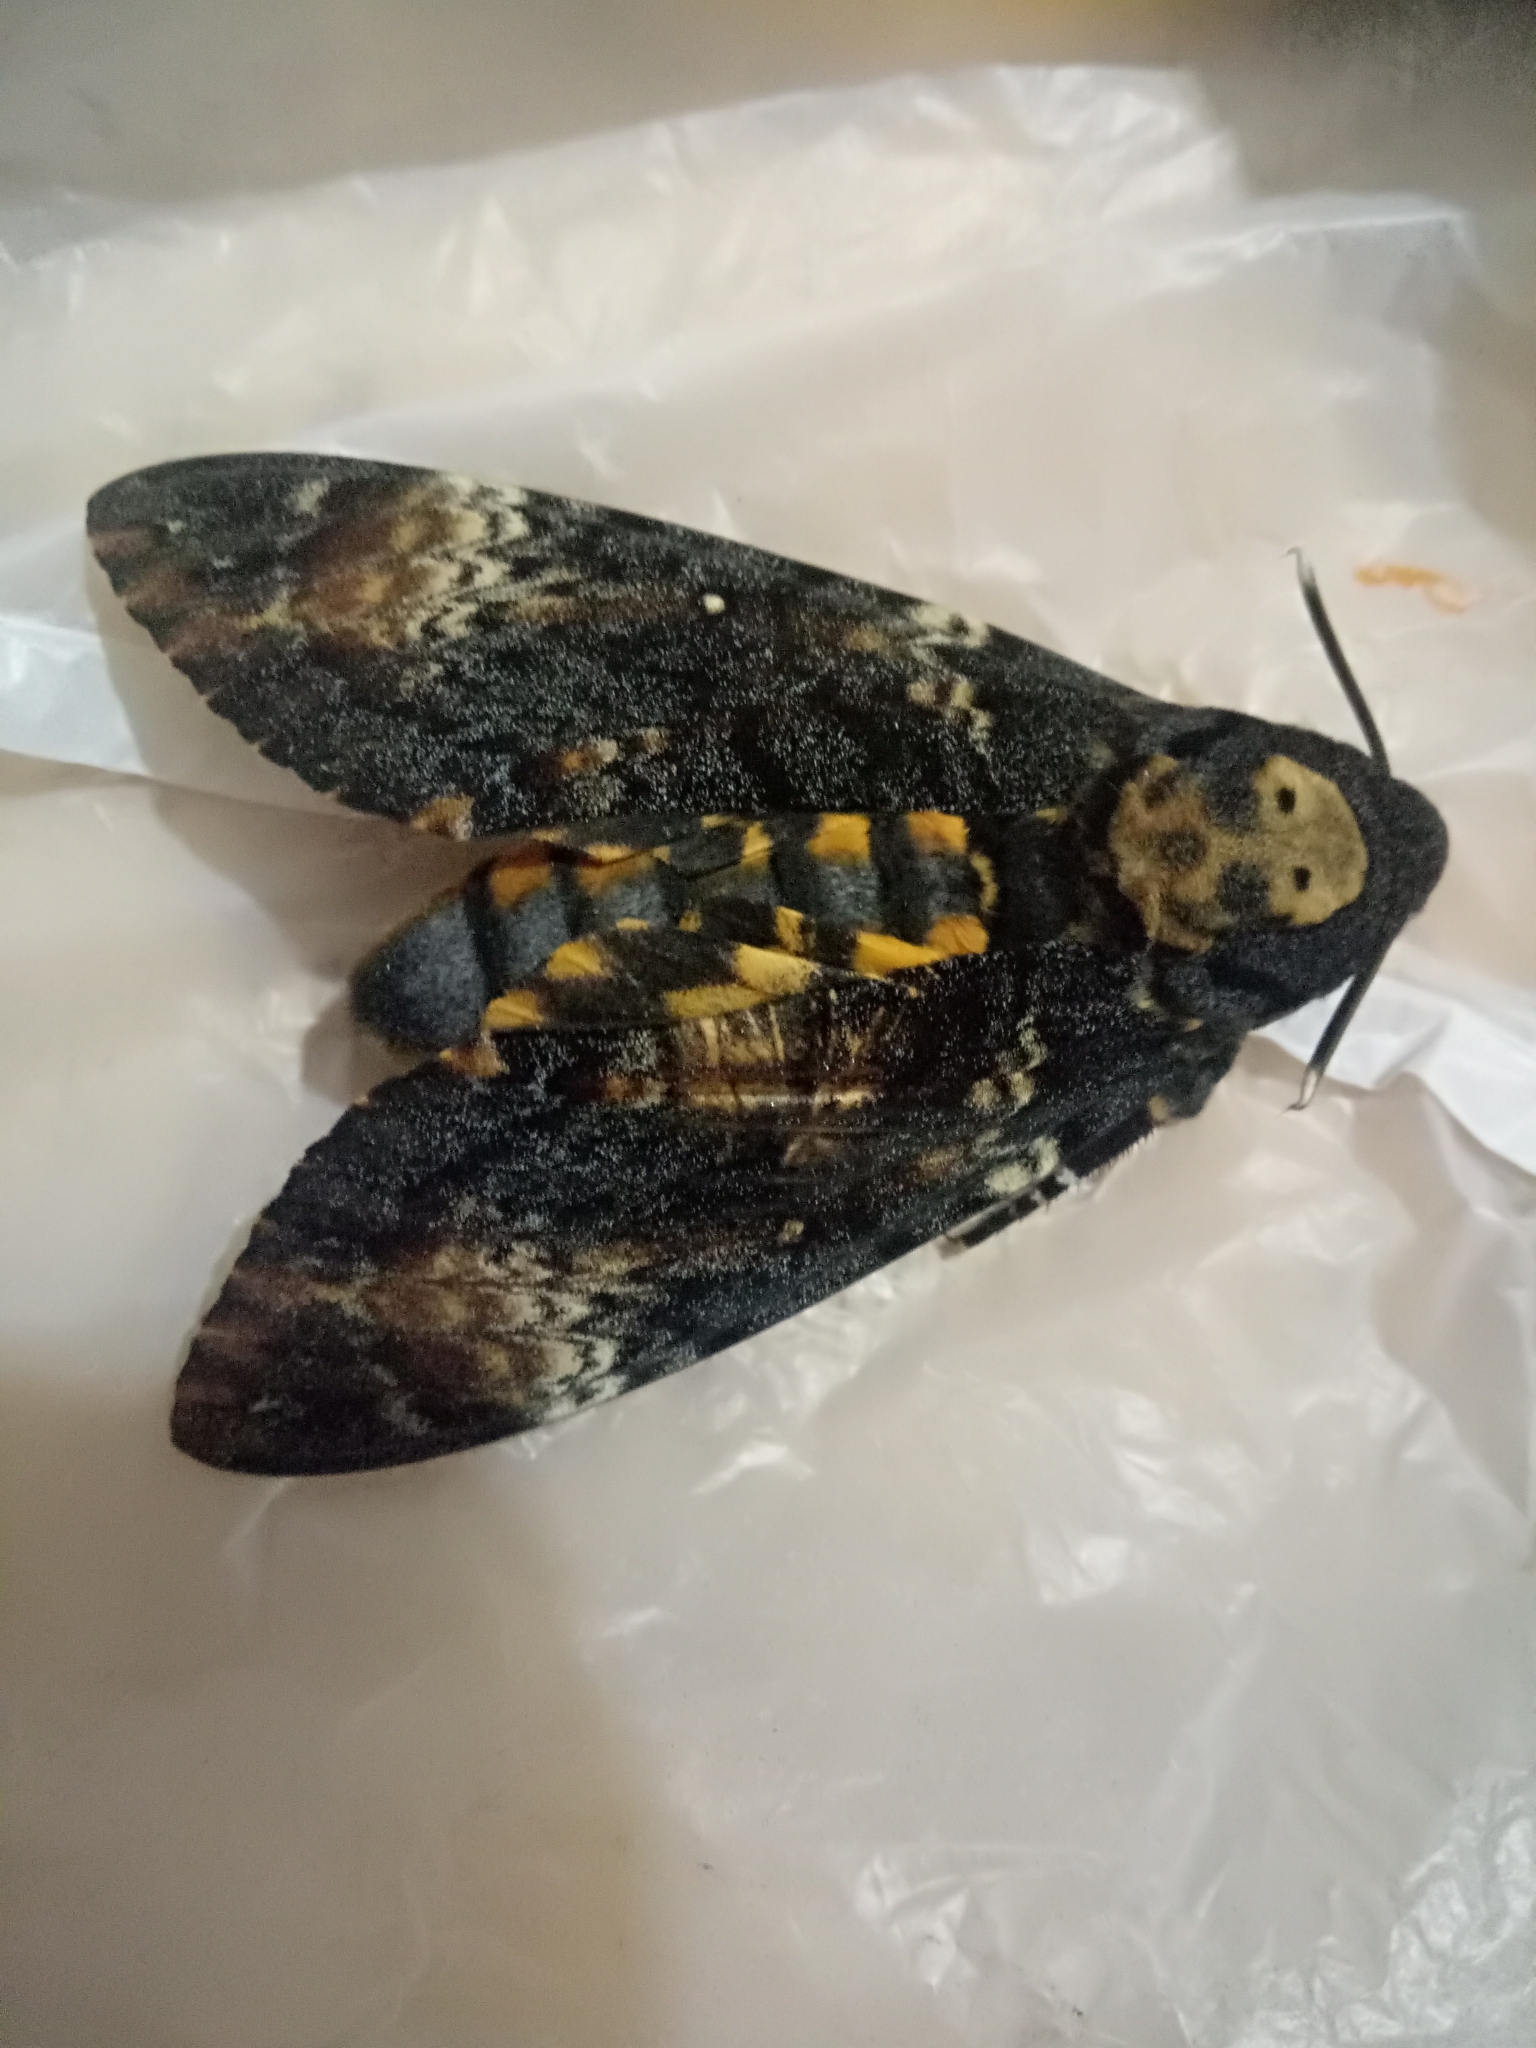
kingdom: Animalia
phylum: Arthropoda
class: Insecta
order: Lepidoptera
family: Sphingidae
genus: Acherontia
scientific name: Acherontia atropos
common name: Death's-head hawk moth
